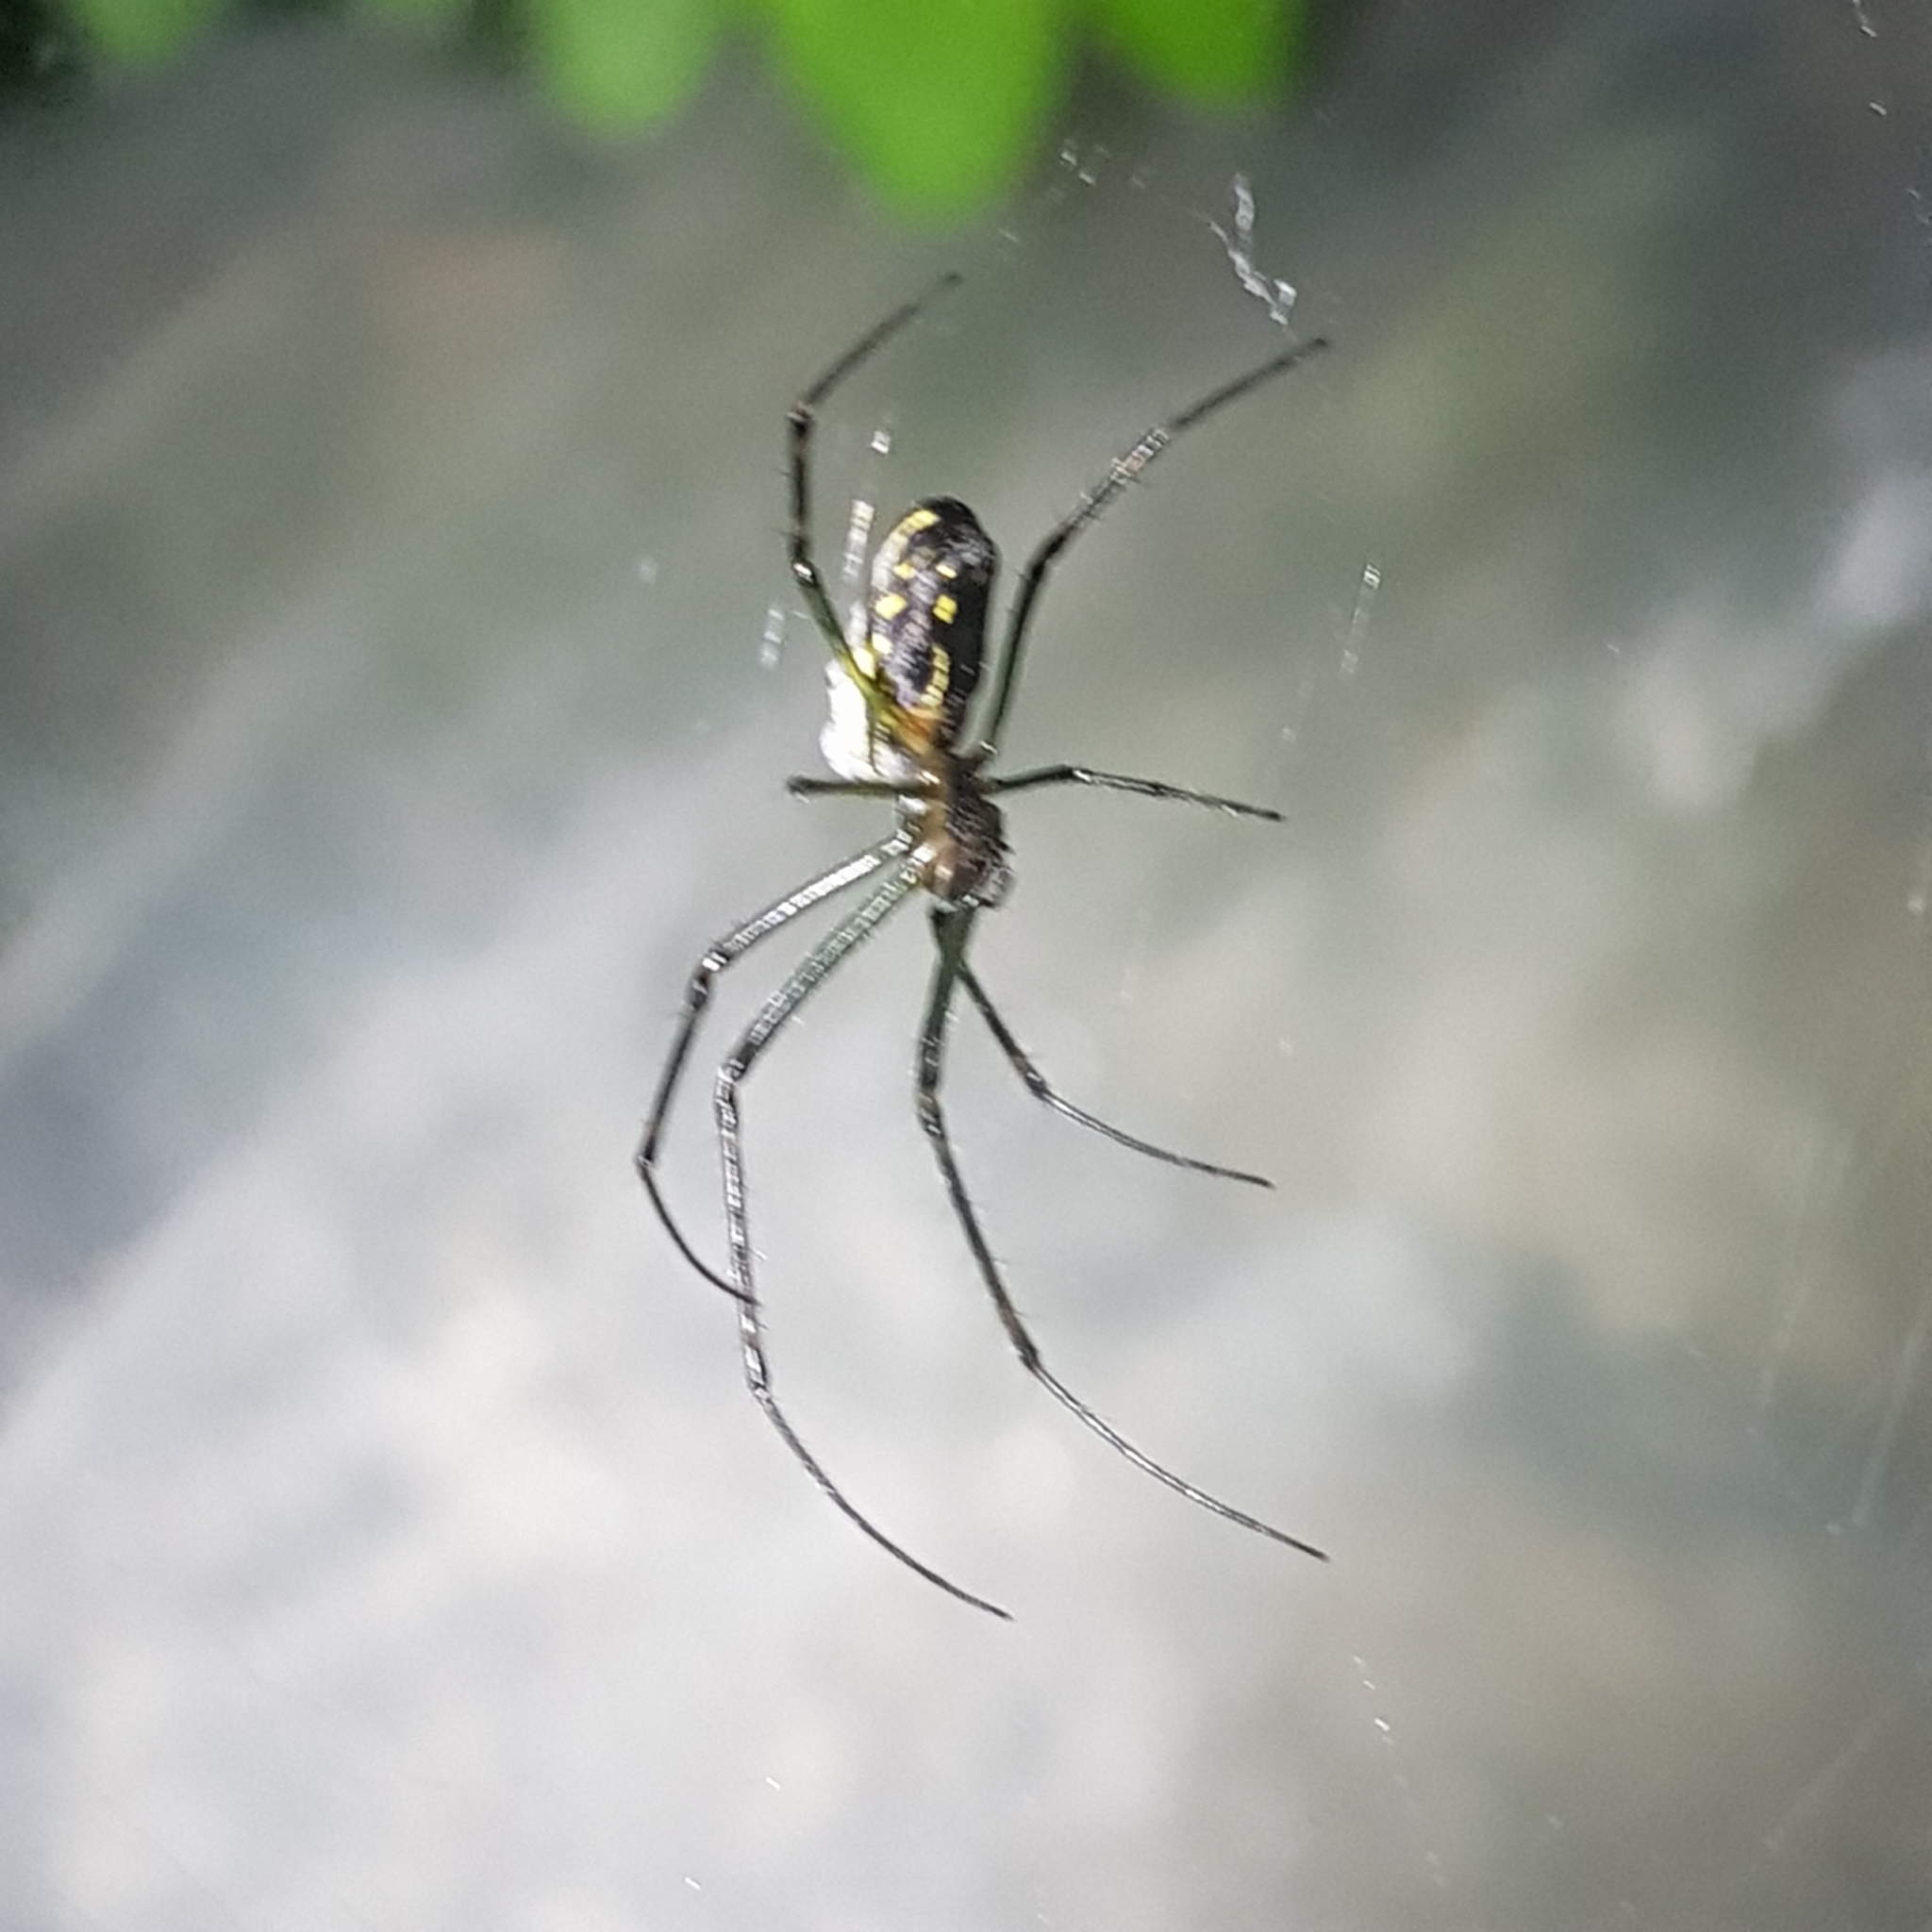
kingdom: Animalia
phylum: Arthropoda
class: Arachnida
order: Araneae
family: Tetragnathidae
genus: Leucauge
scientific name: Leucauge dromedaria
